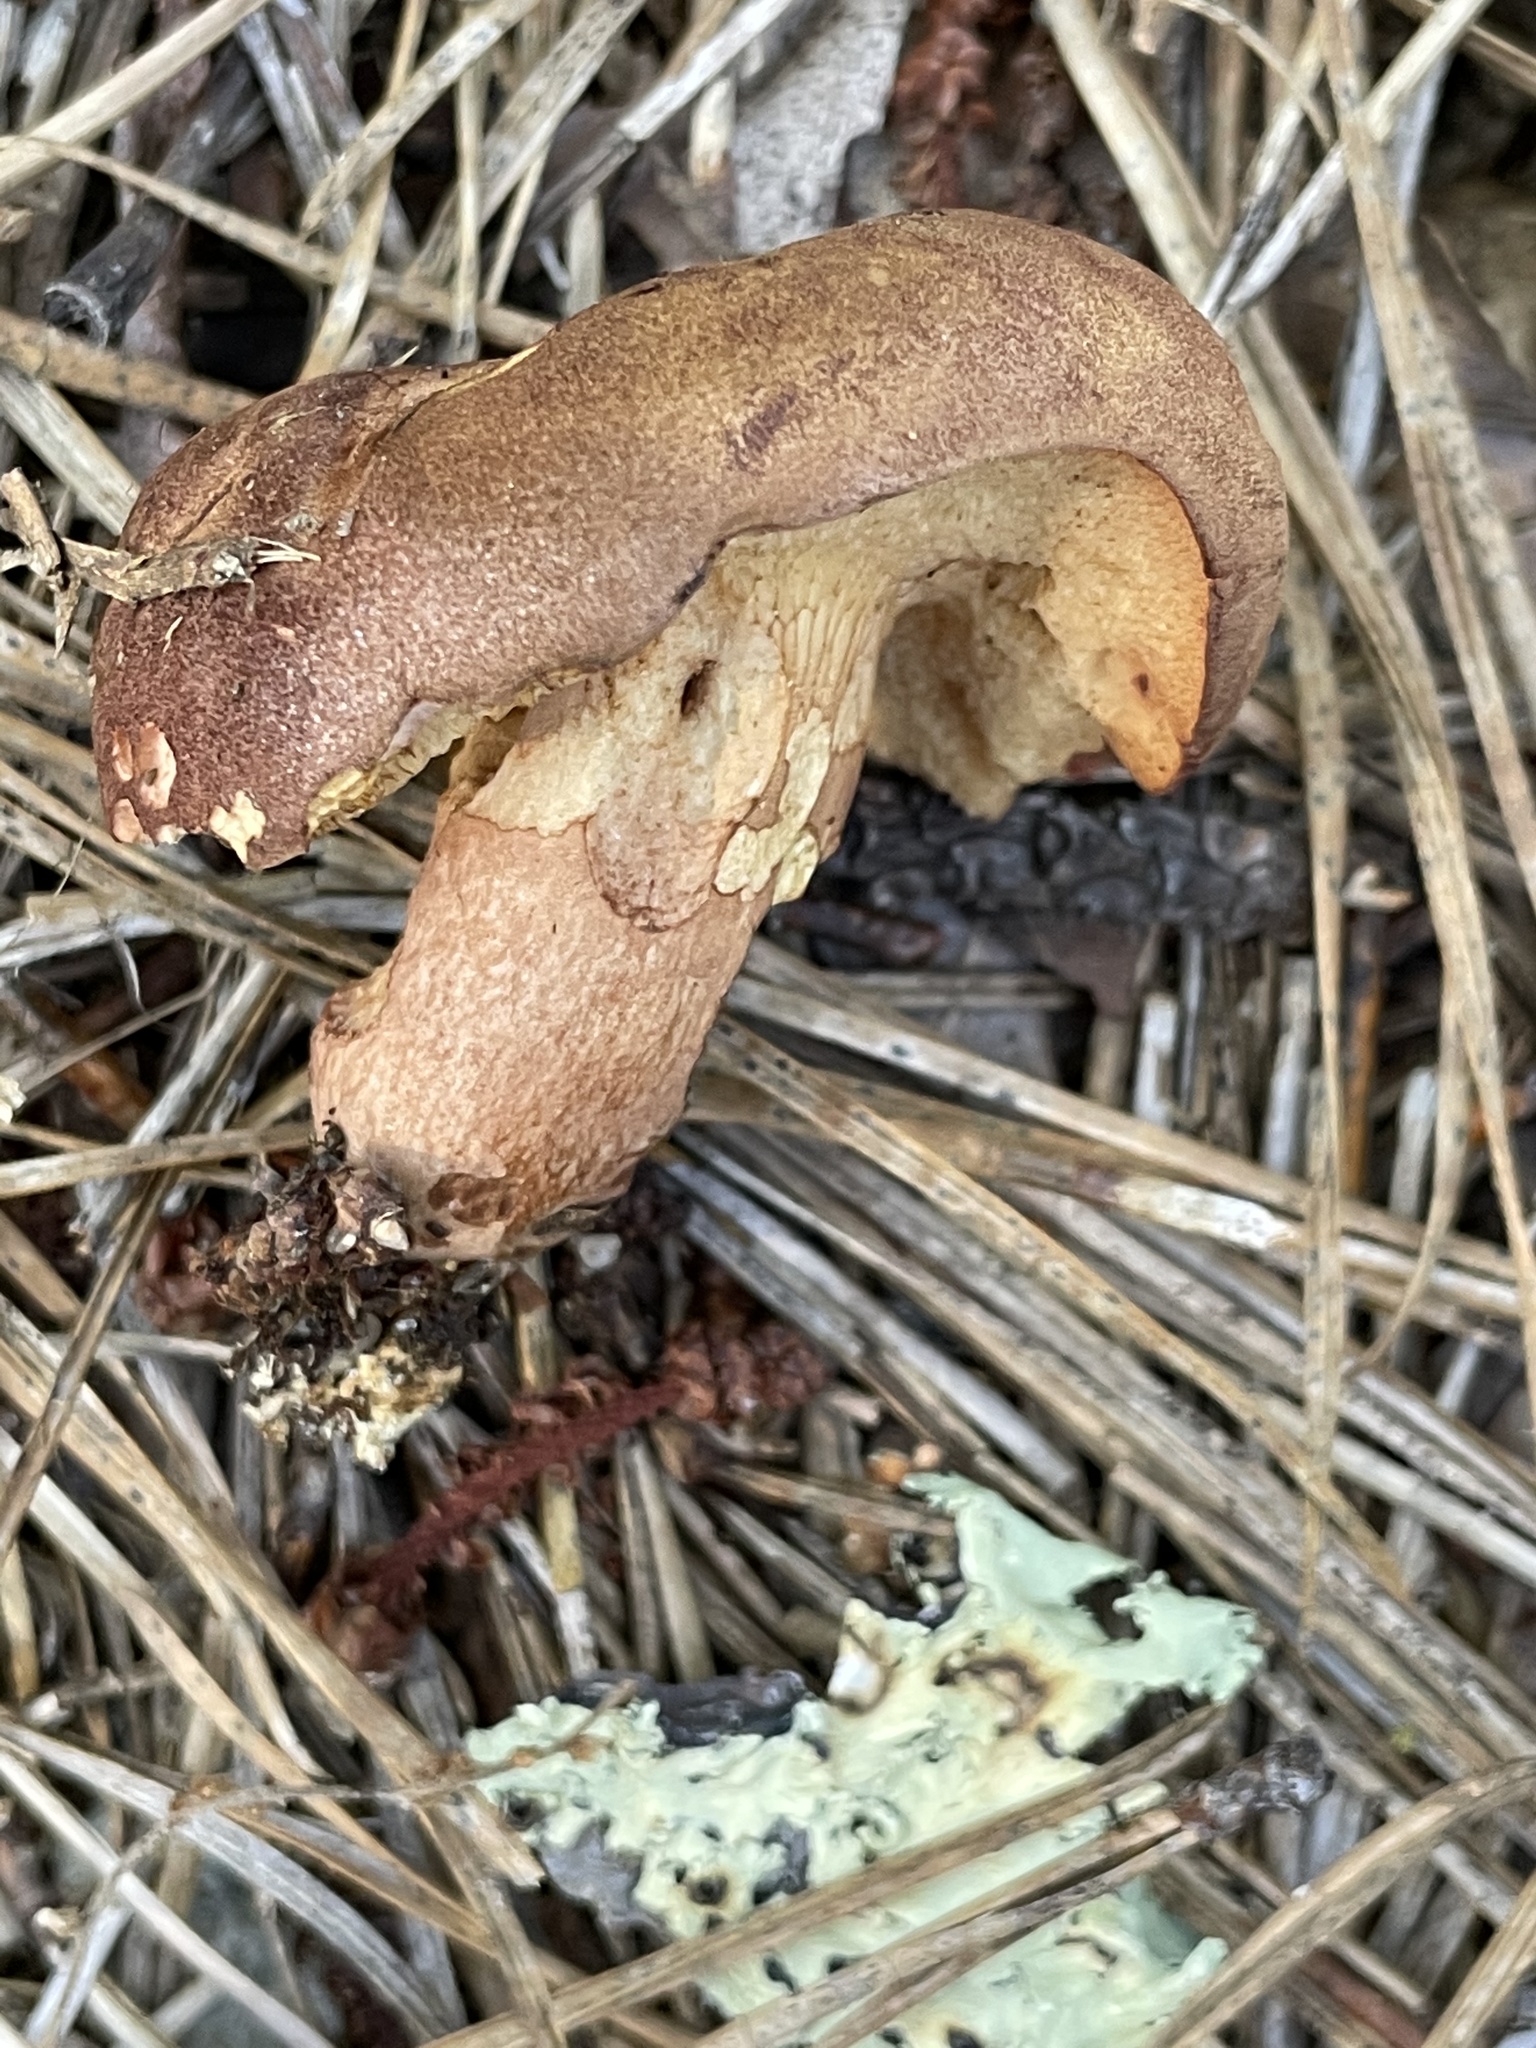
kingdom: Fungi
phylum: Basidiomycota
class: Agaricomycetes
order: Boletales
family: Boletaceae
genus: Bothia
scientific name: Bothia castanella
